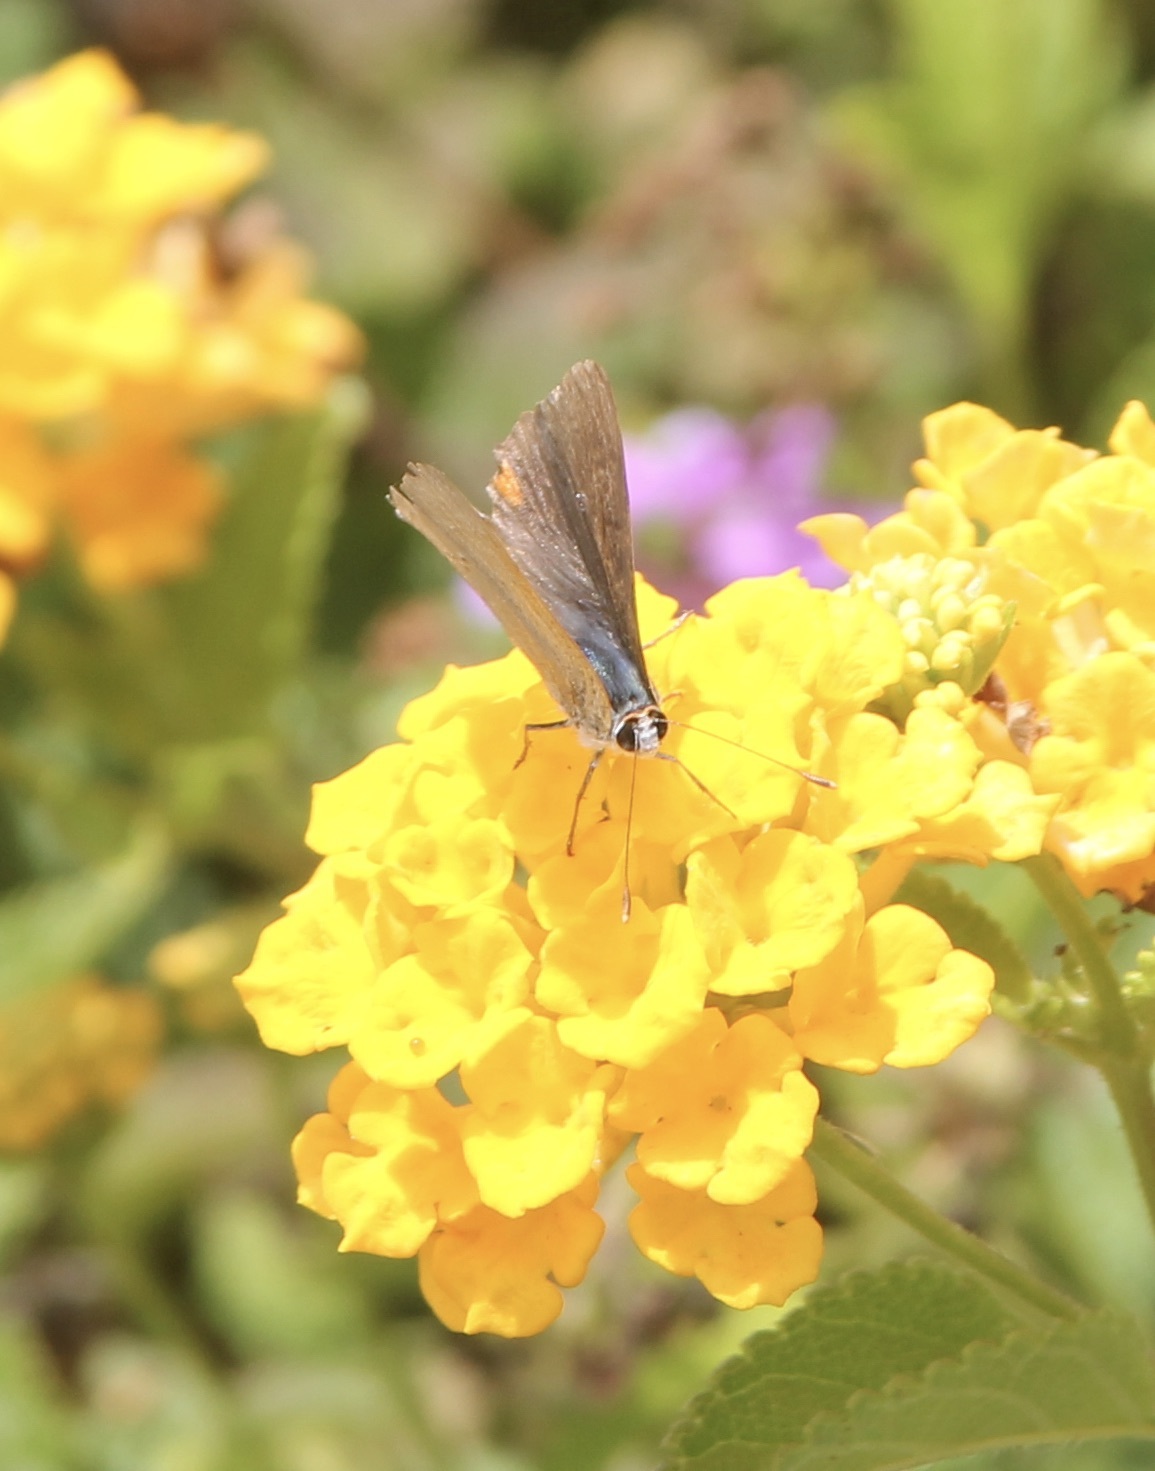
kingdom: Animalia
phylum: Arthropoda
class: Insecta
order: Lepidoptera
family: Lycaenidae
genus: Strymon
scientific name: Strymon melinus
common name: Gray hairstreak
